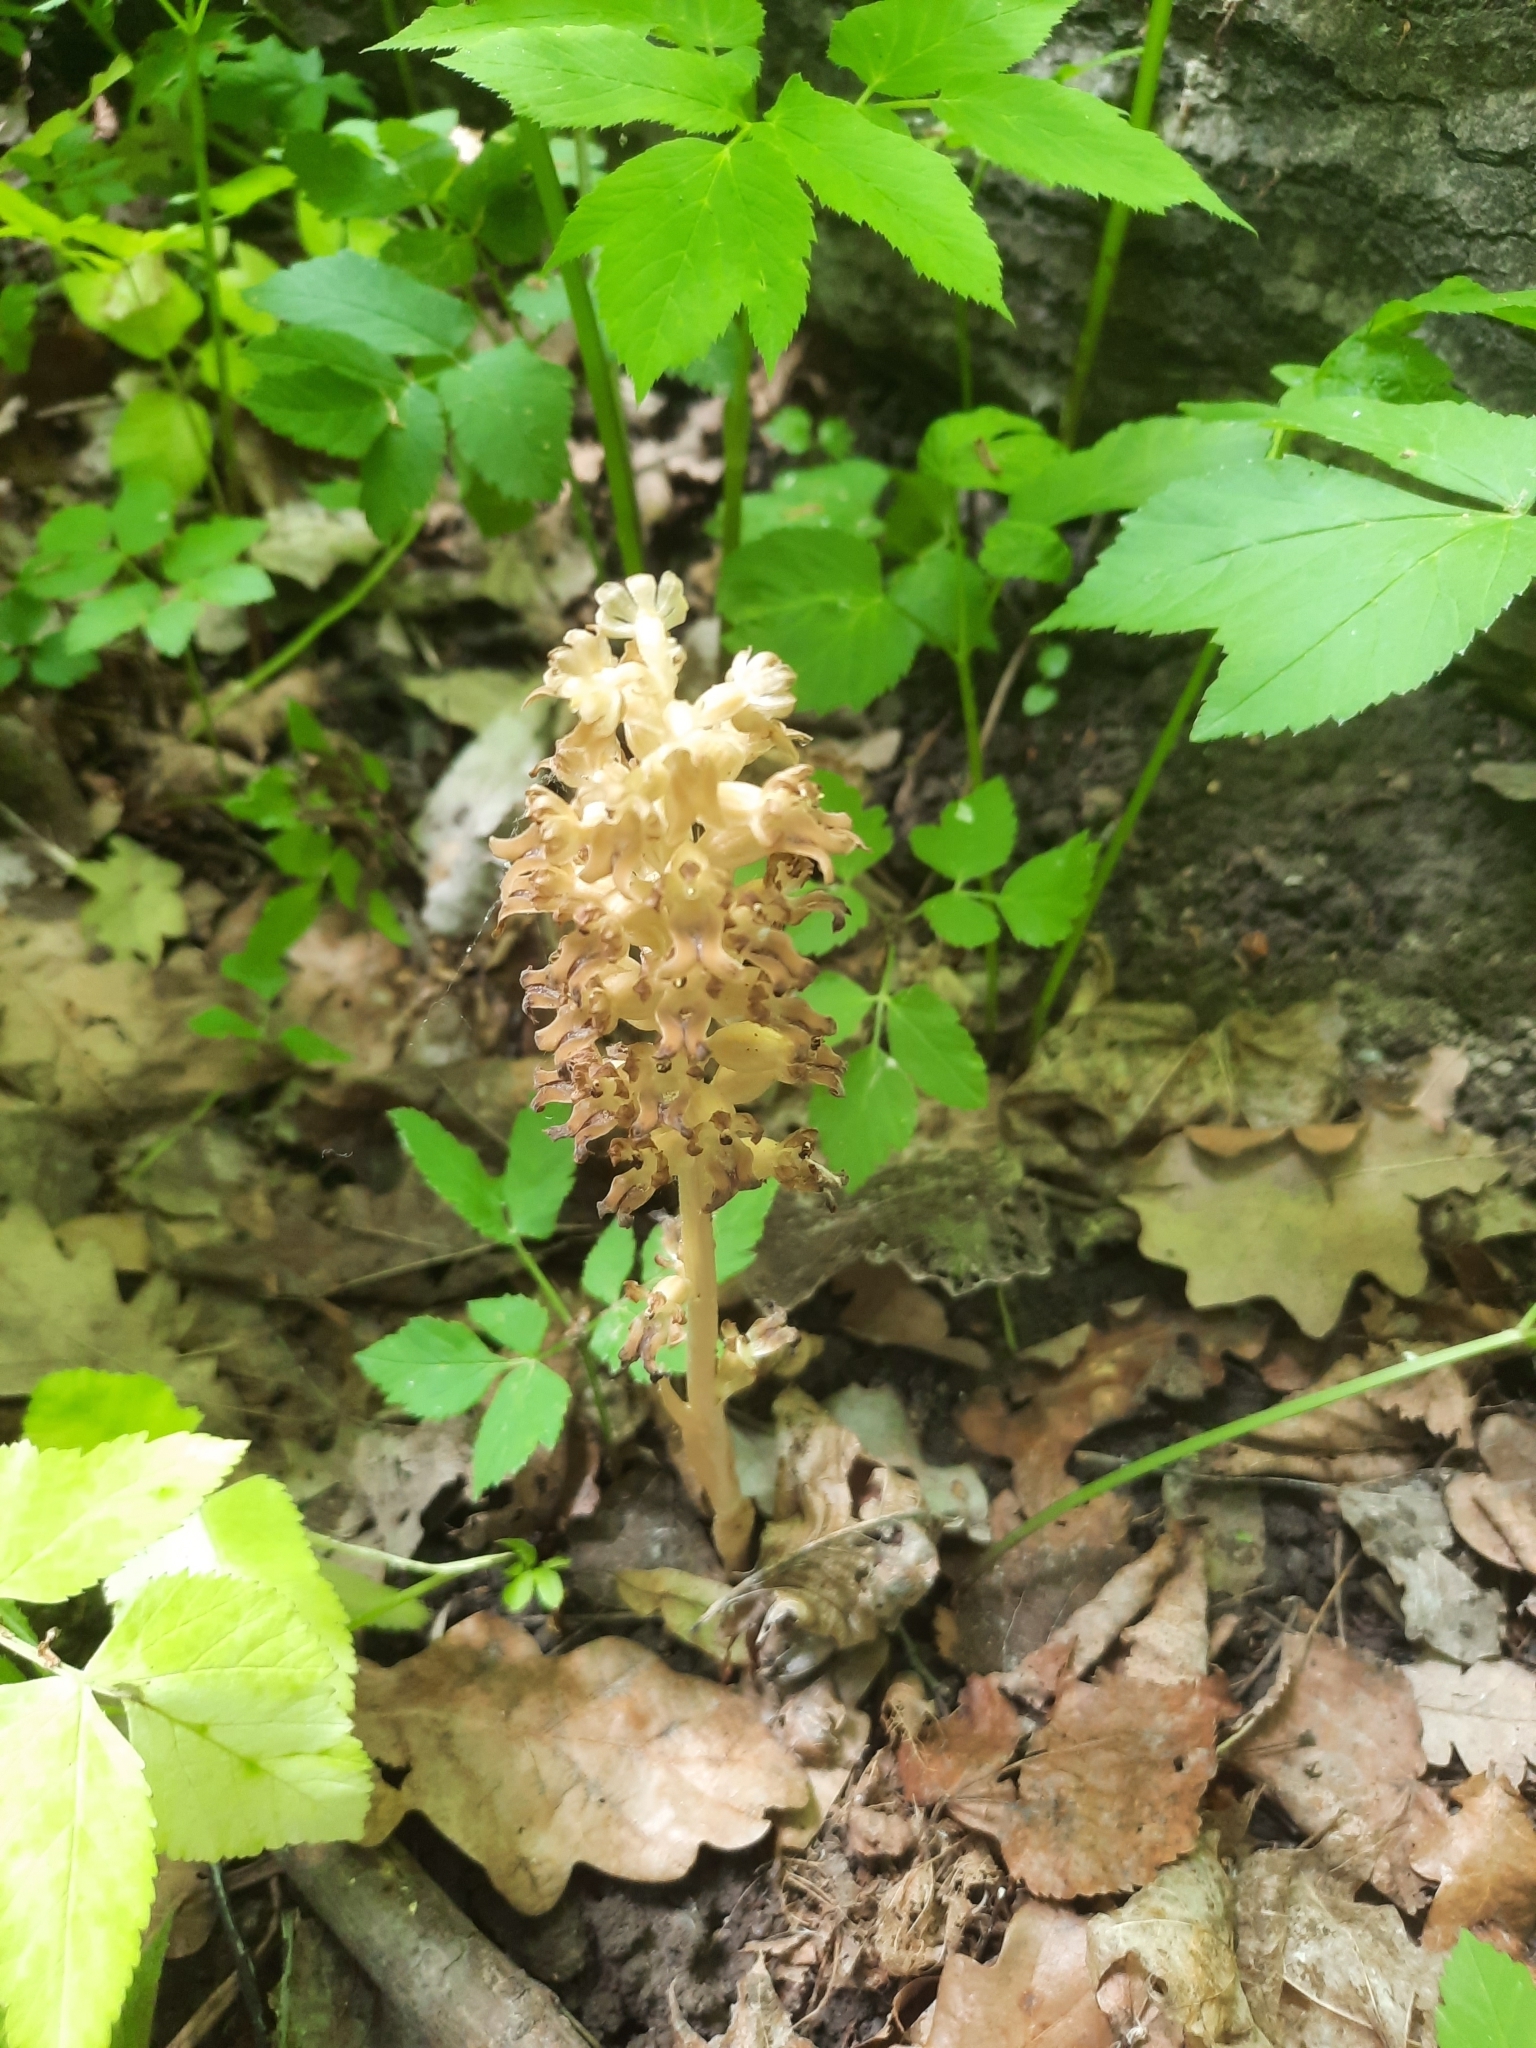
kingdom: Plantae
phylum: Tracheophyta
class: Liliopsida
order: Asparagales
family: Orchidaceae
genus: Neottia
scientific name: Neottia nidus-avis
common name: Bird's-nest orchid
